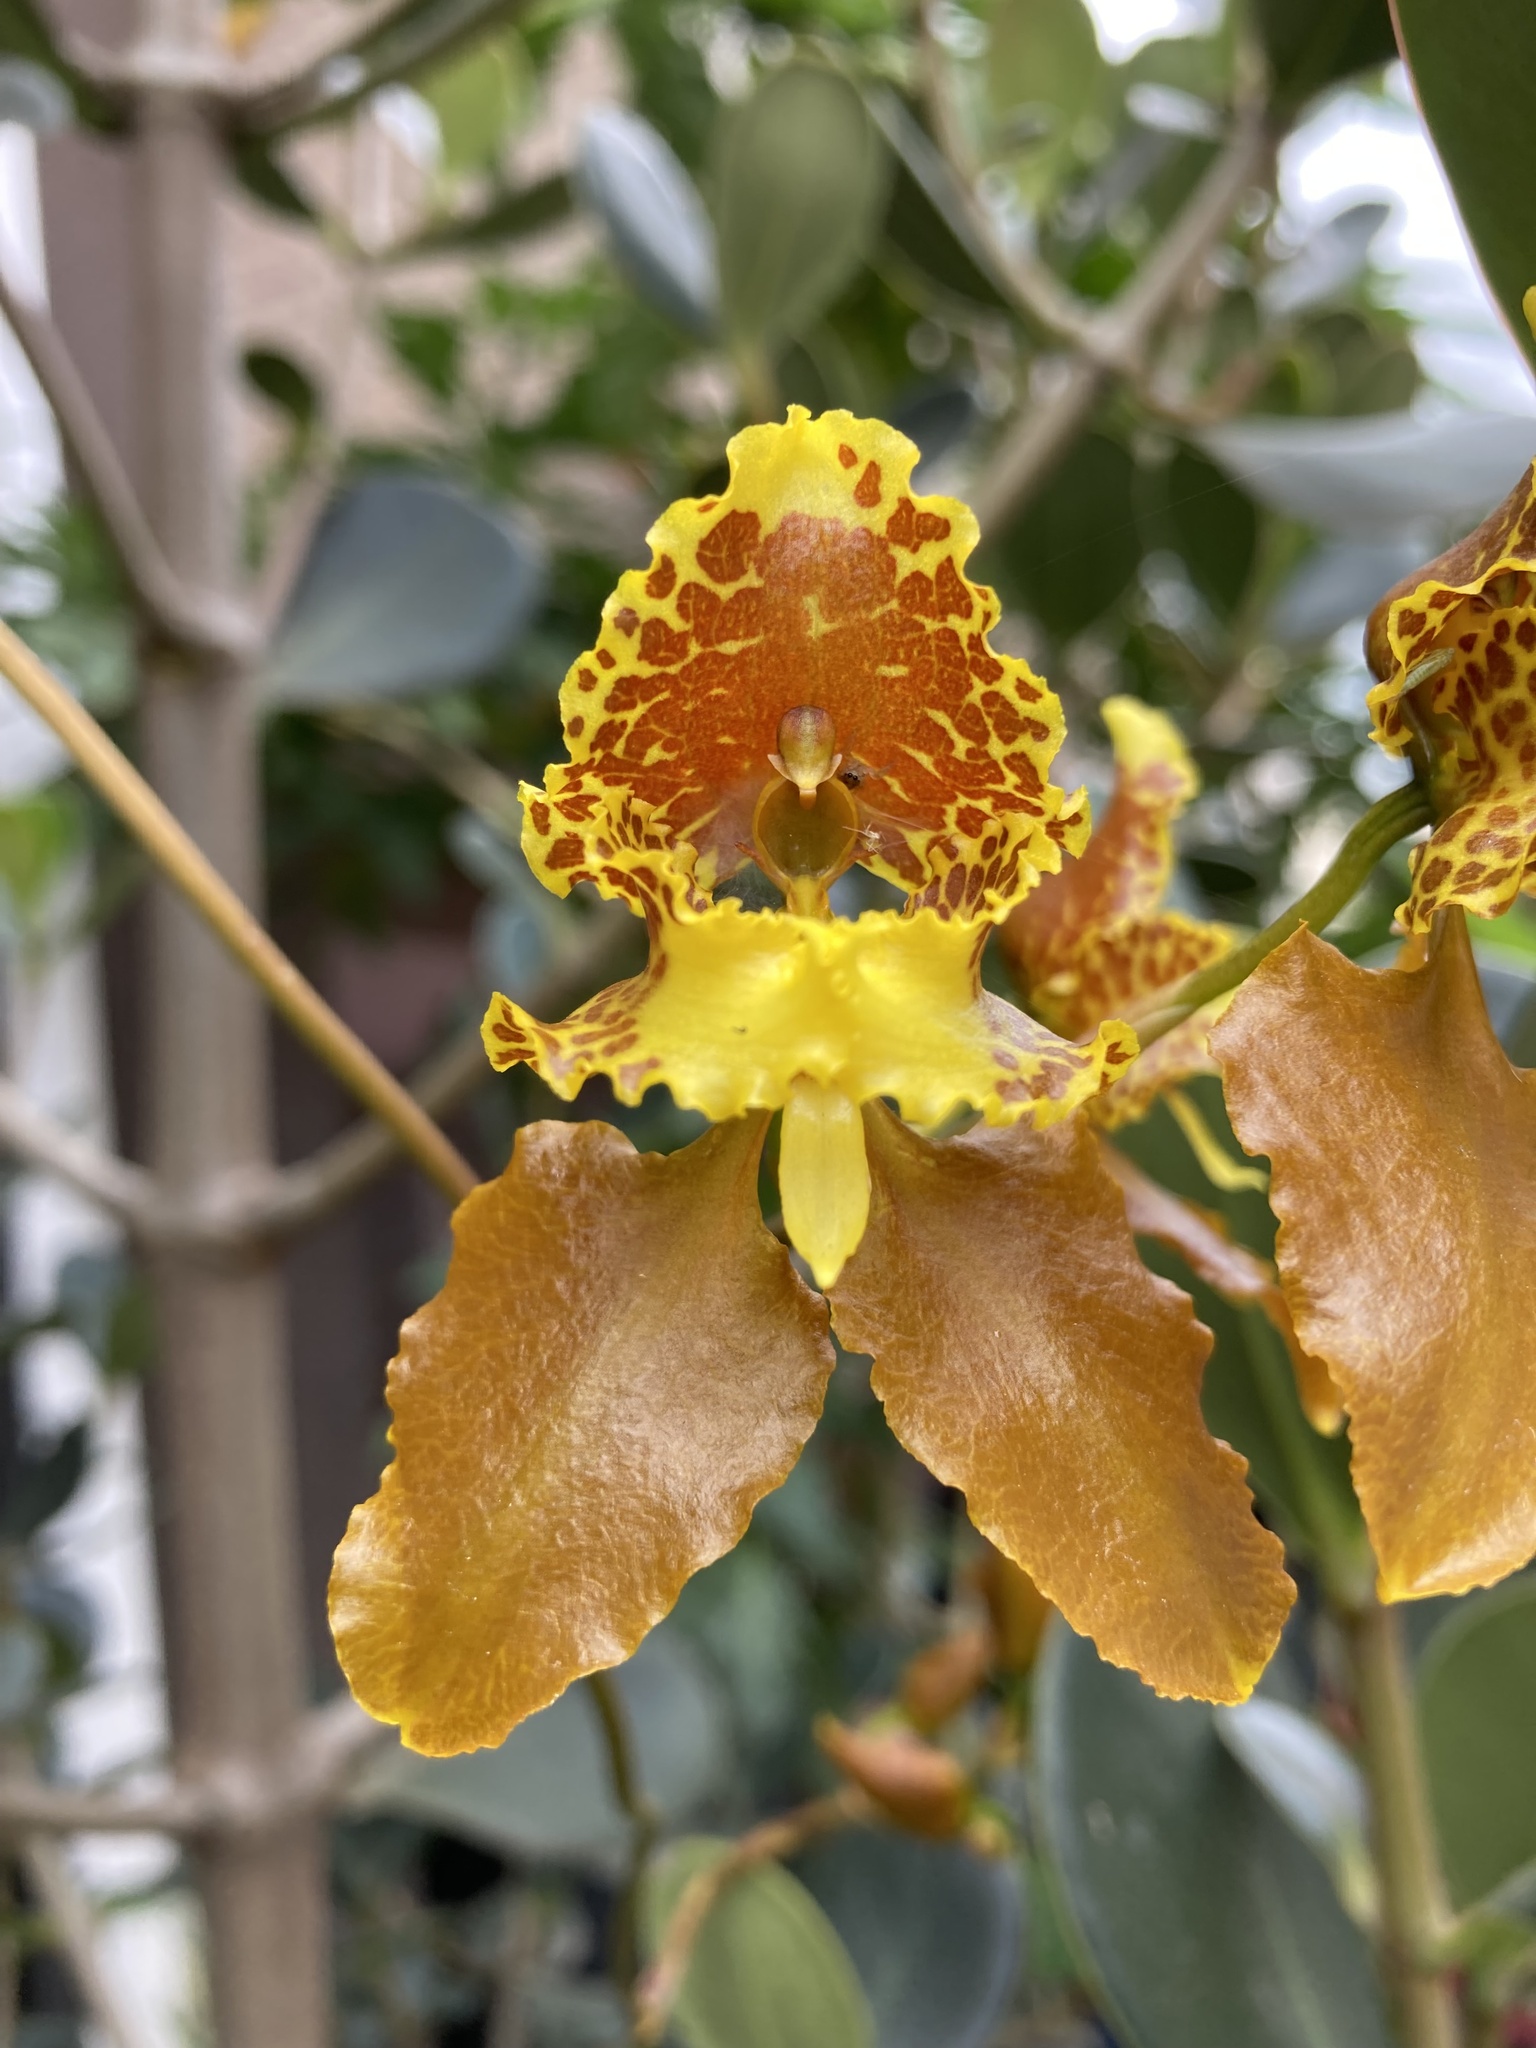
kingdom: Plantae
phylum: Tracheophyta
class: Liliopsida
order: Asparagales
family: Orchidaceae
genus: Cyrtochilum
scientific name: Cyrtochilum annulare
